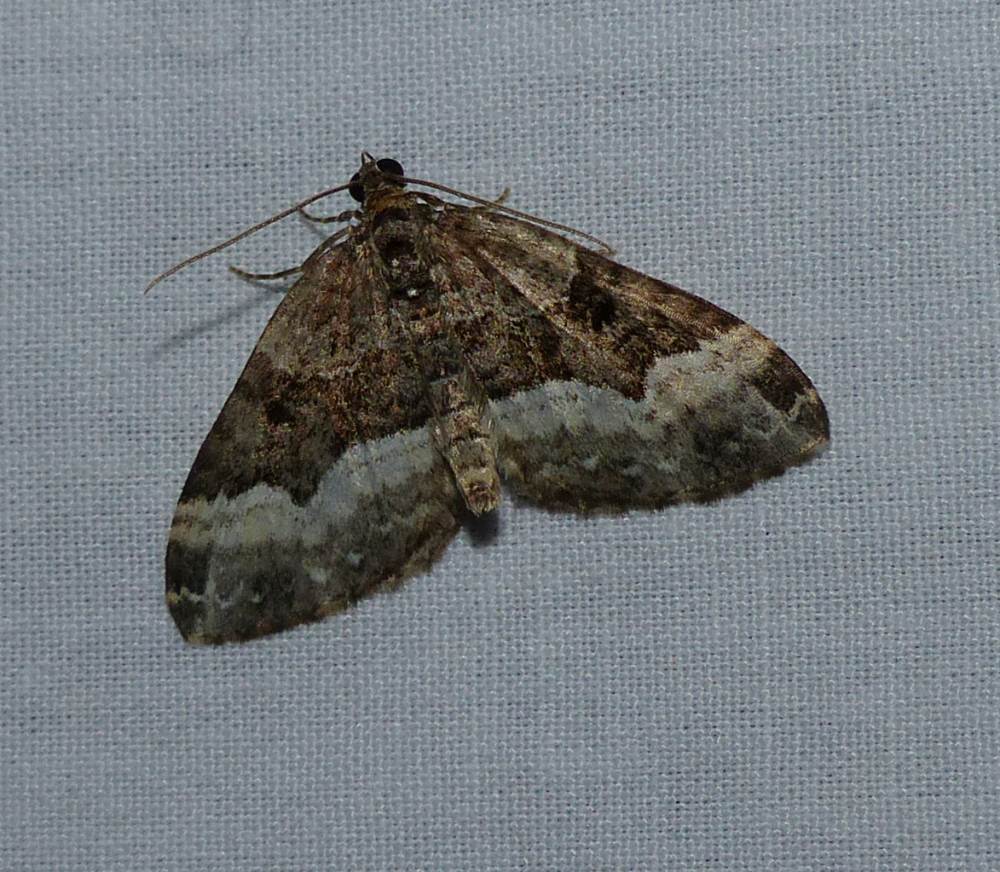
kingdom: Animalia
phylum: Arthropoda
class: Insecta
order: Lepidoptera
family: Geometridae
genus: Euphyia
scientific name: Euphyia intermediata
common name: Sharp-angled carpet
